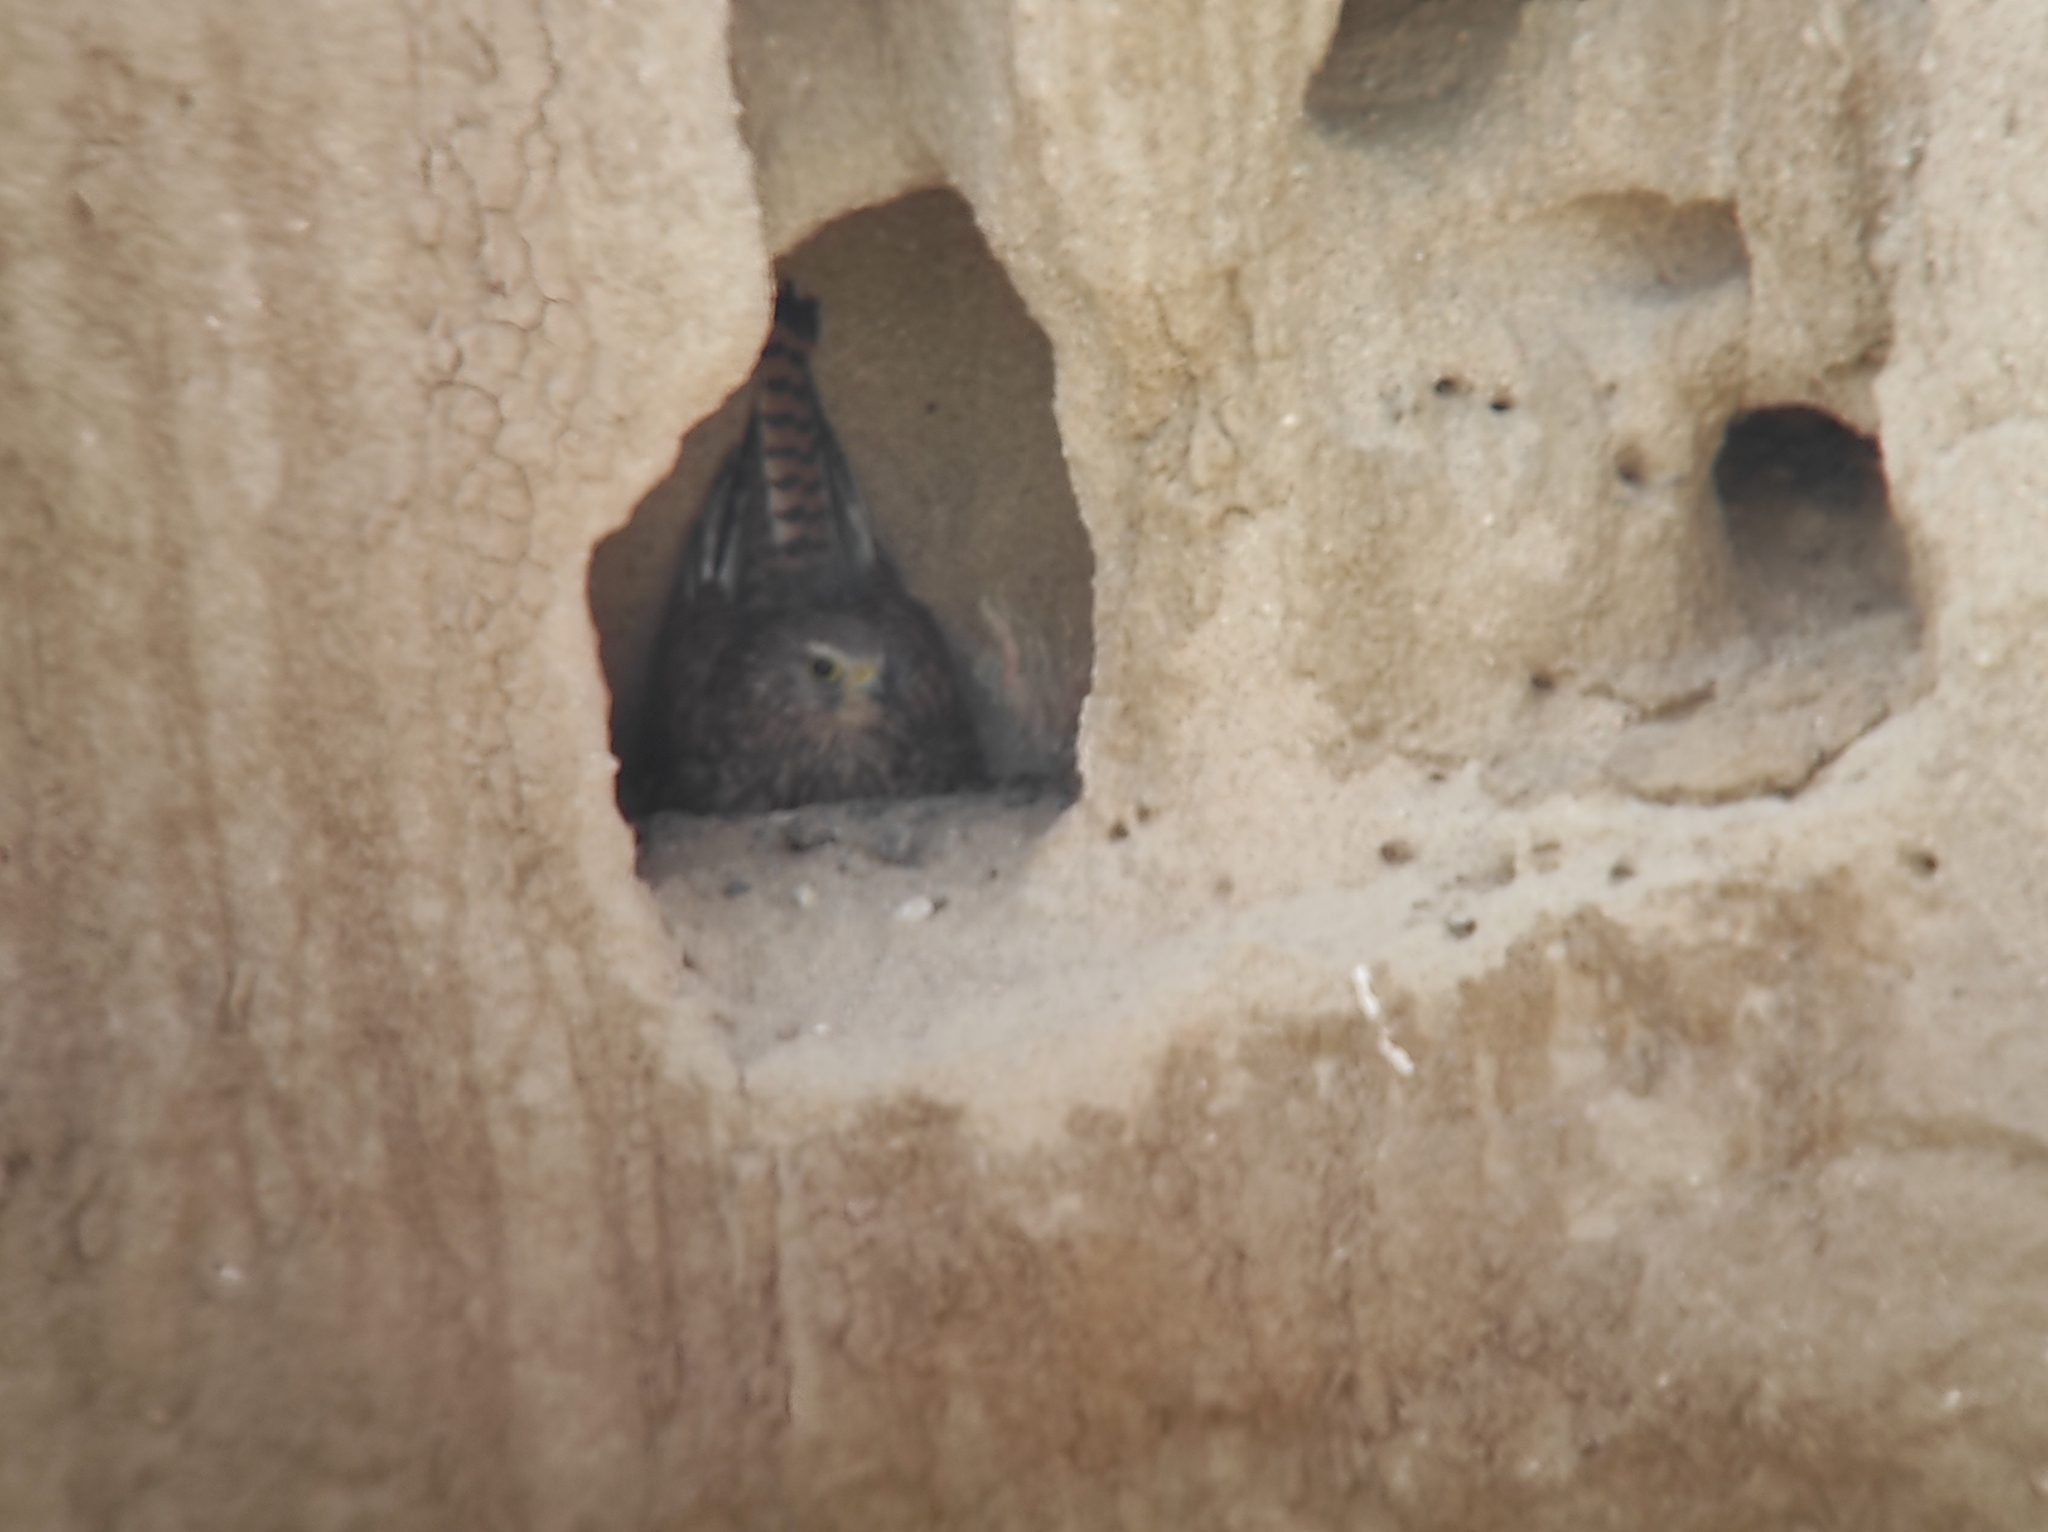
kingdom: Animalia
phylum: Chordata
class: Aves
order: Falconiformes
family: Falconidae
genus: Falco
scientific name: Falco tinnunculus
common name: Common kestrel
